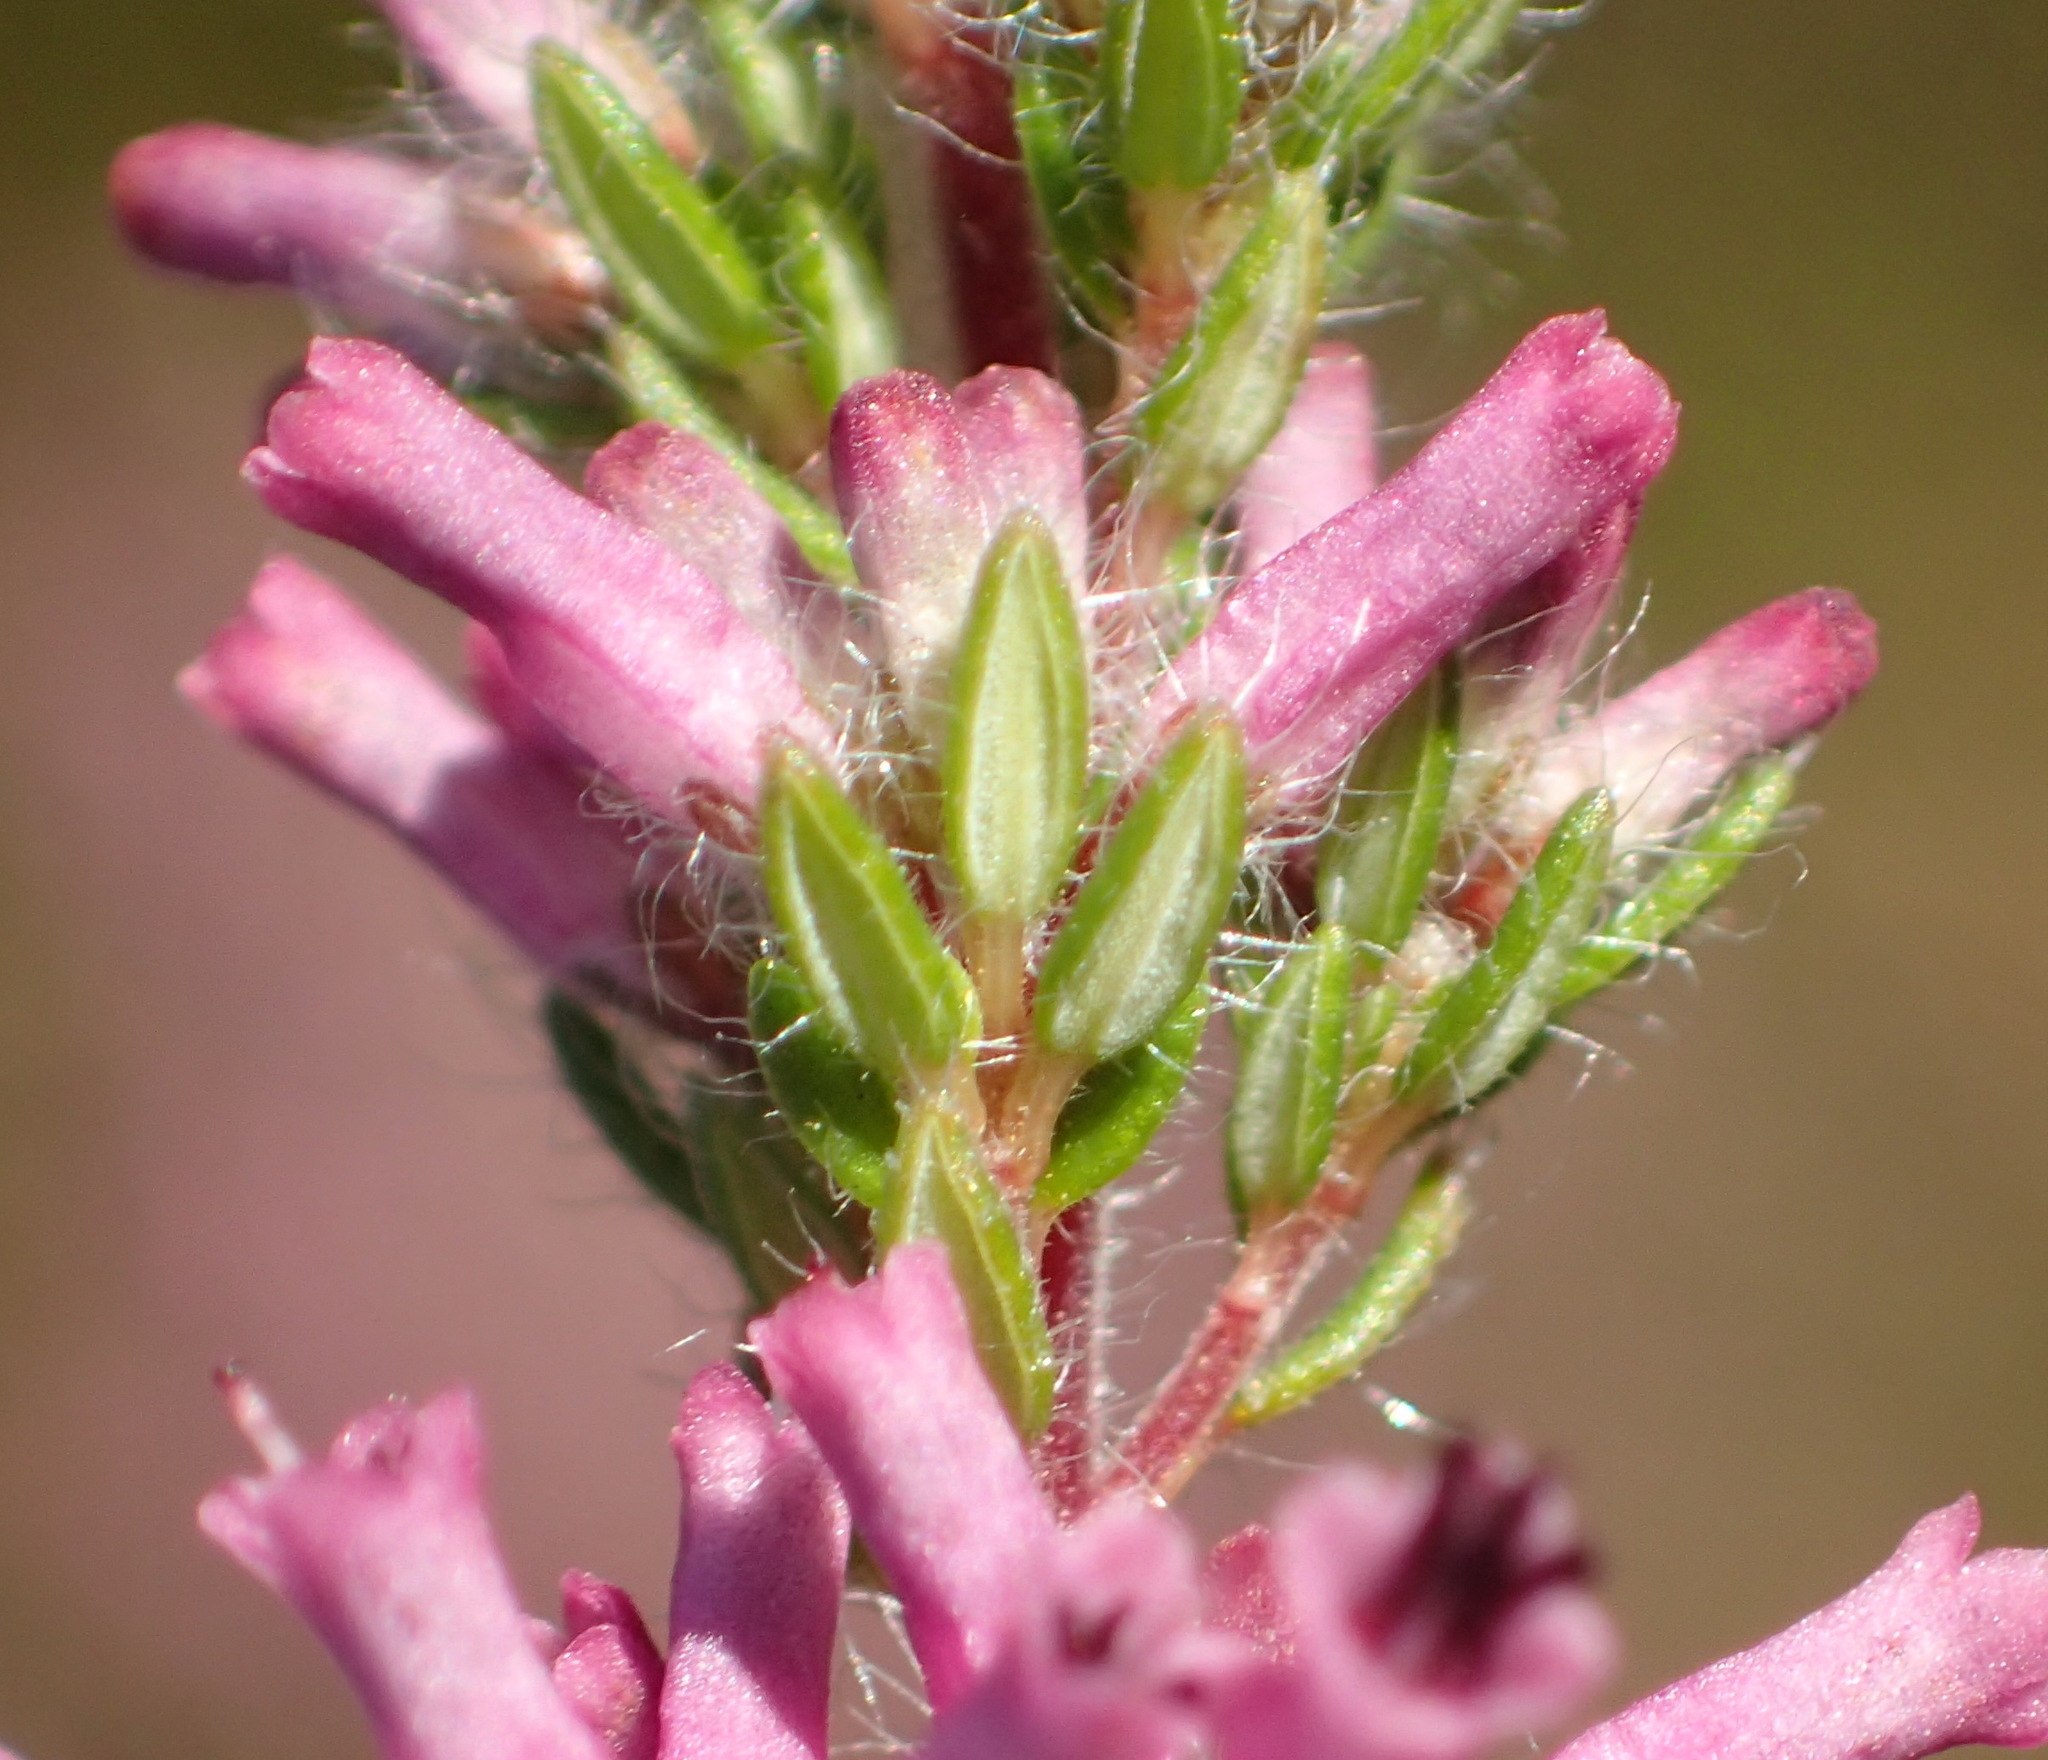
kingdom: Plantae
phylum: Tracheophyta
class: Magnoliopsida
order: Ericales
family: Ericaceae
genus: Erica
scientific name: Erica longimontana
